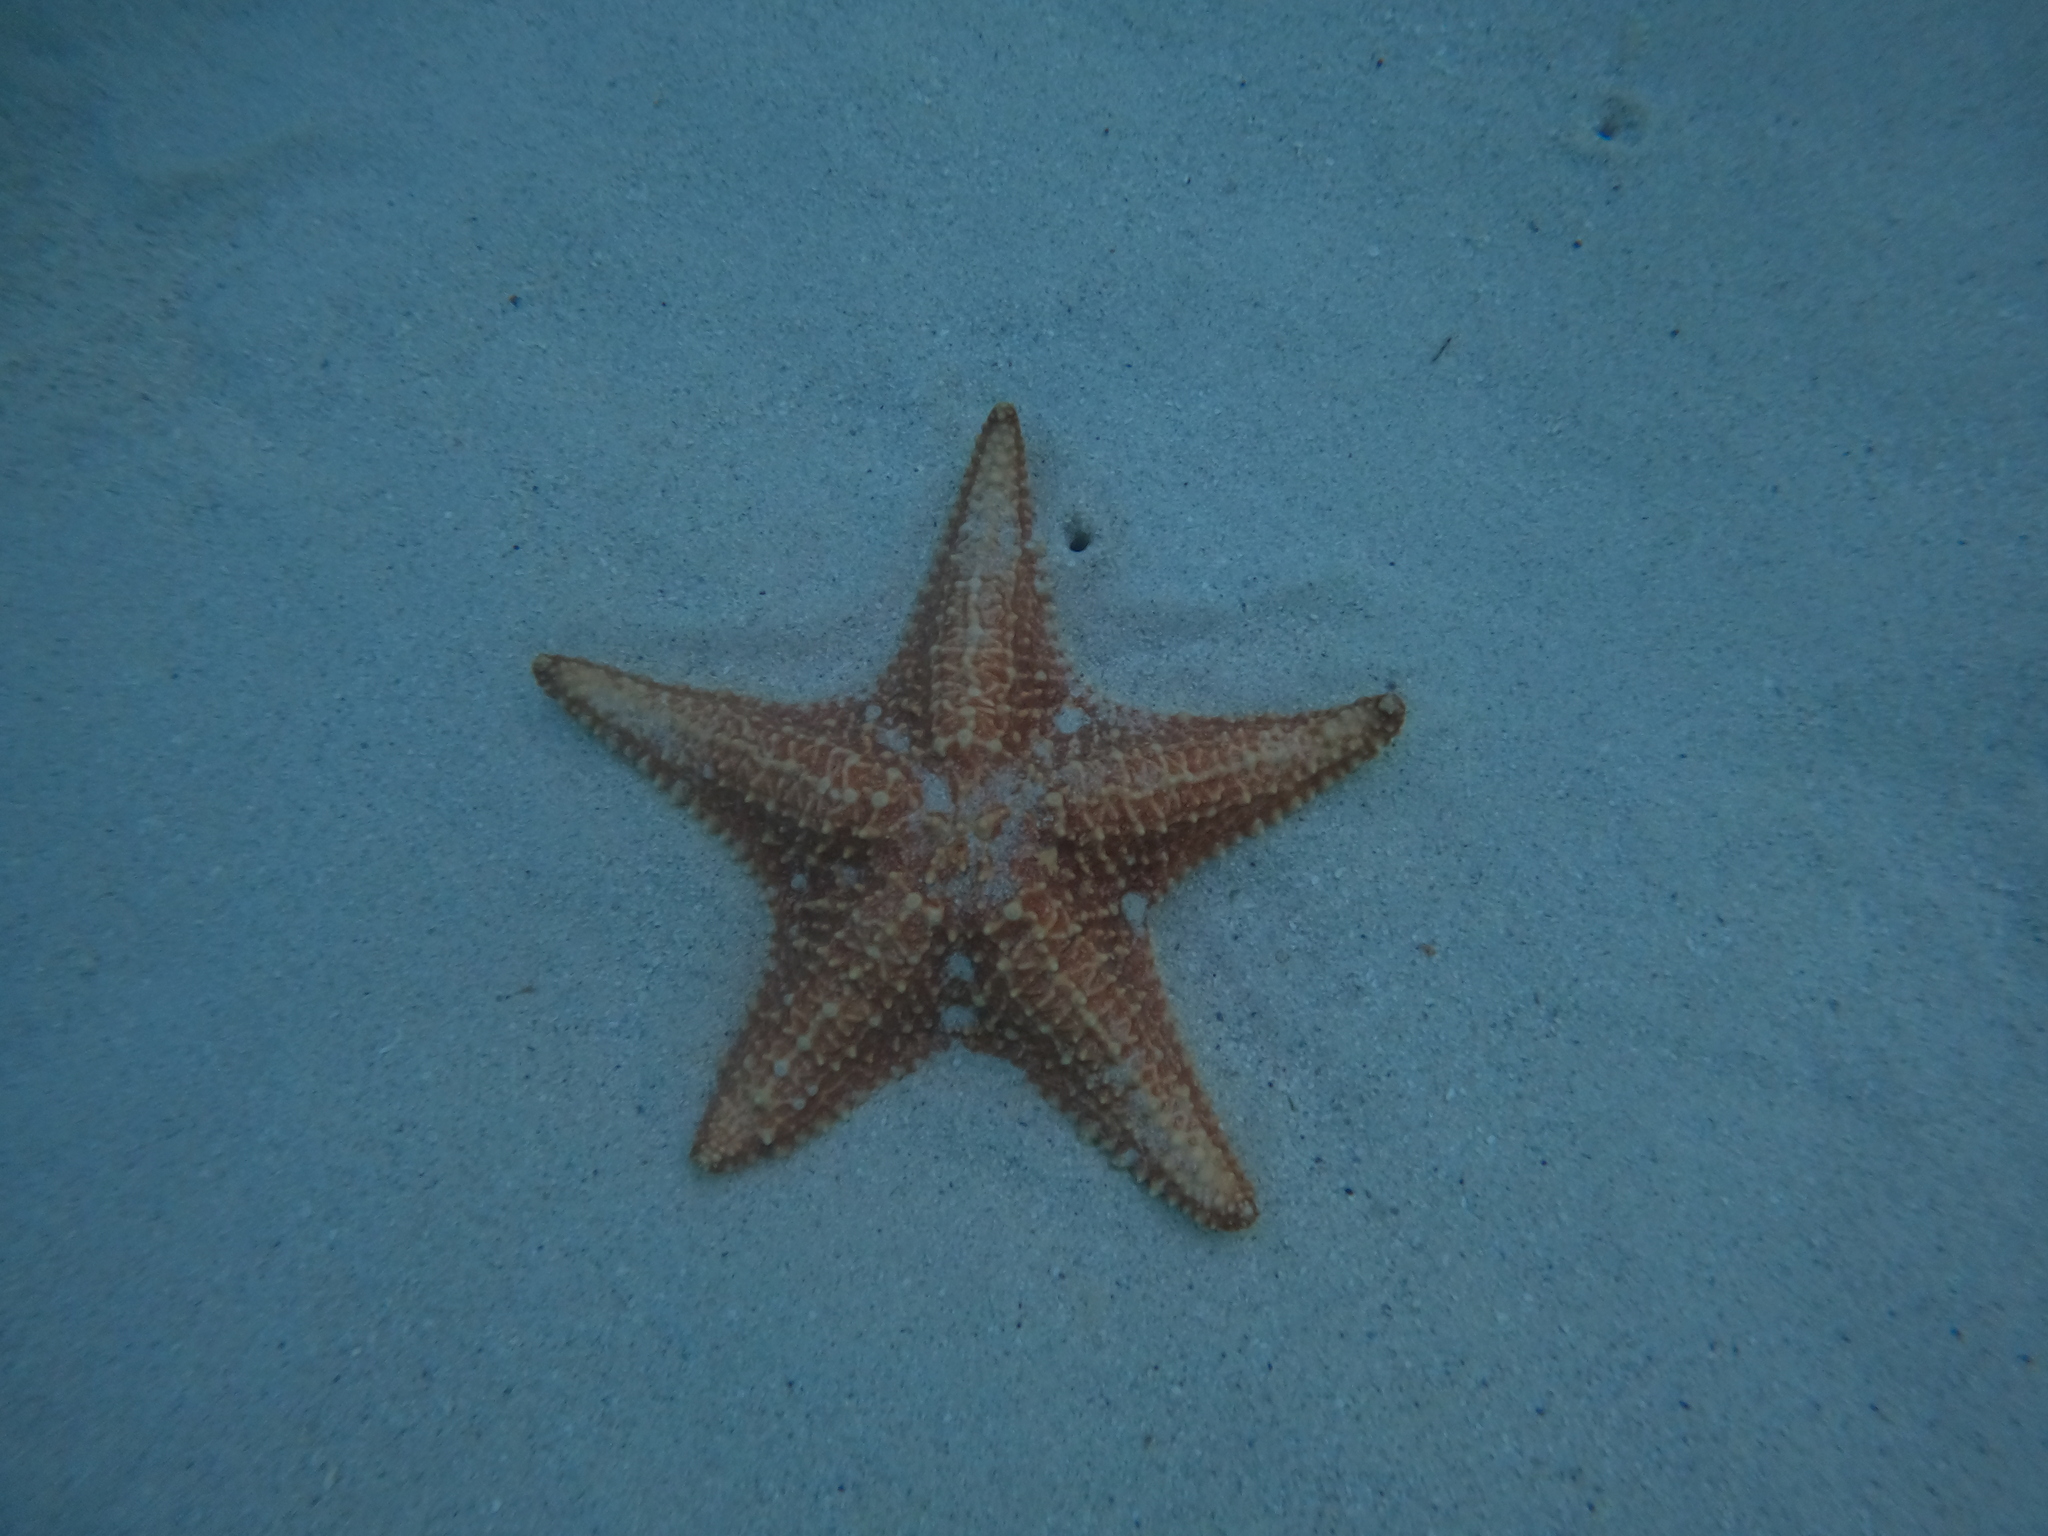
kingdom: Animalia
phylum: Echinodermata
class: Asteroidea
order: Valvatida
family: Oreasteridae
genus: Oreaster
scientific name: Oreaster reticulatus
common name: Cushion sea star
